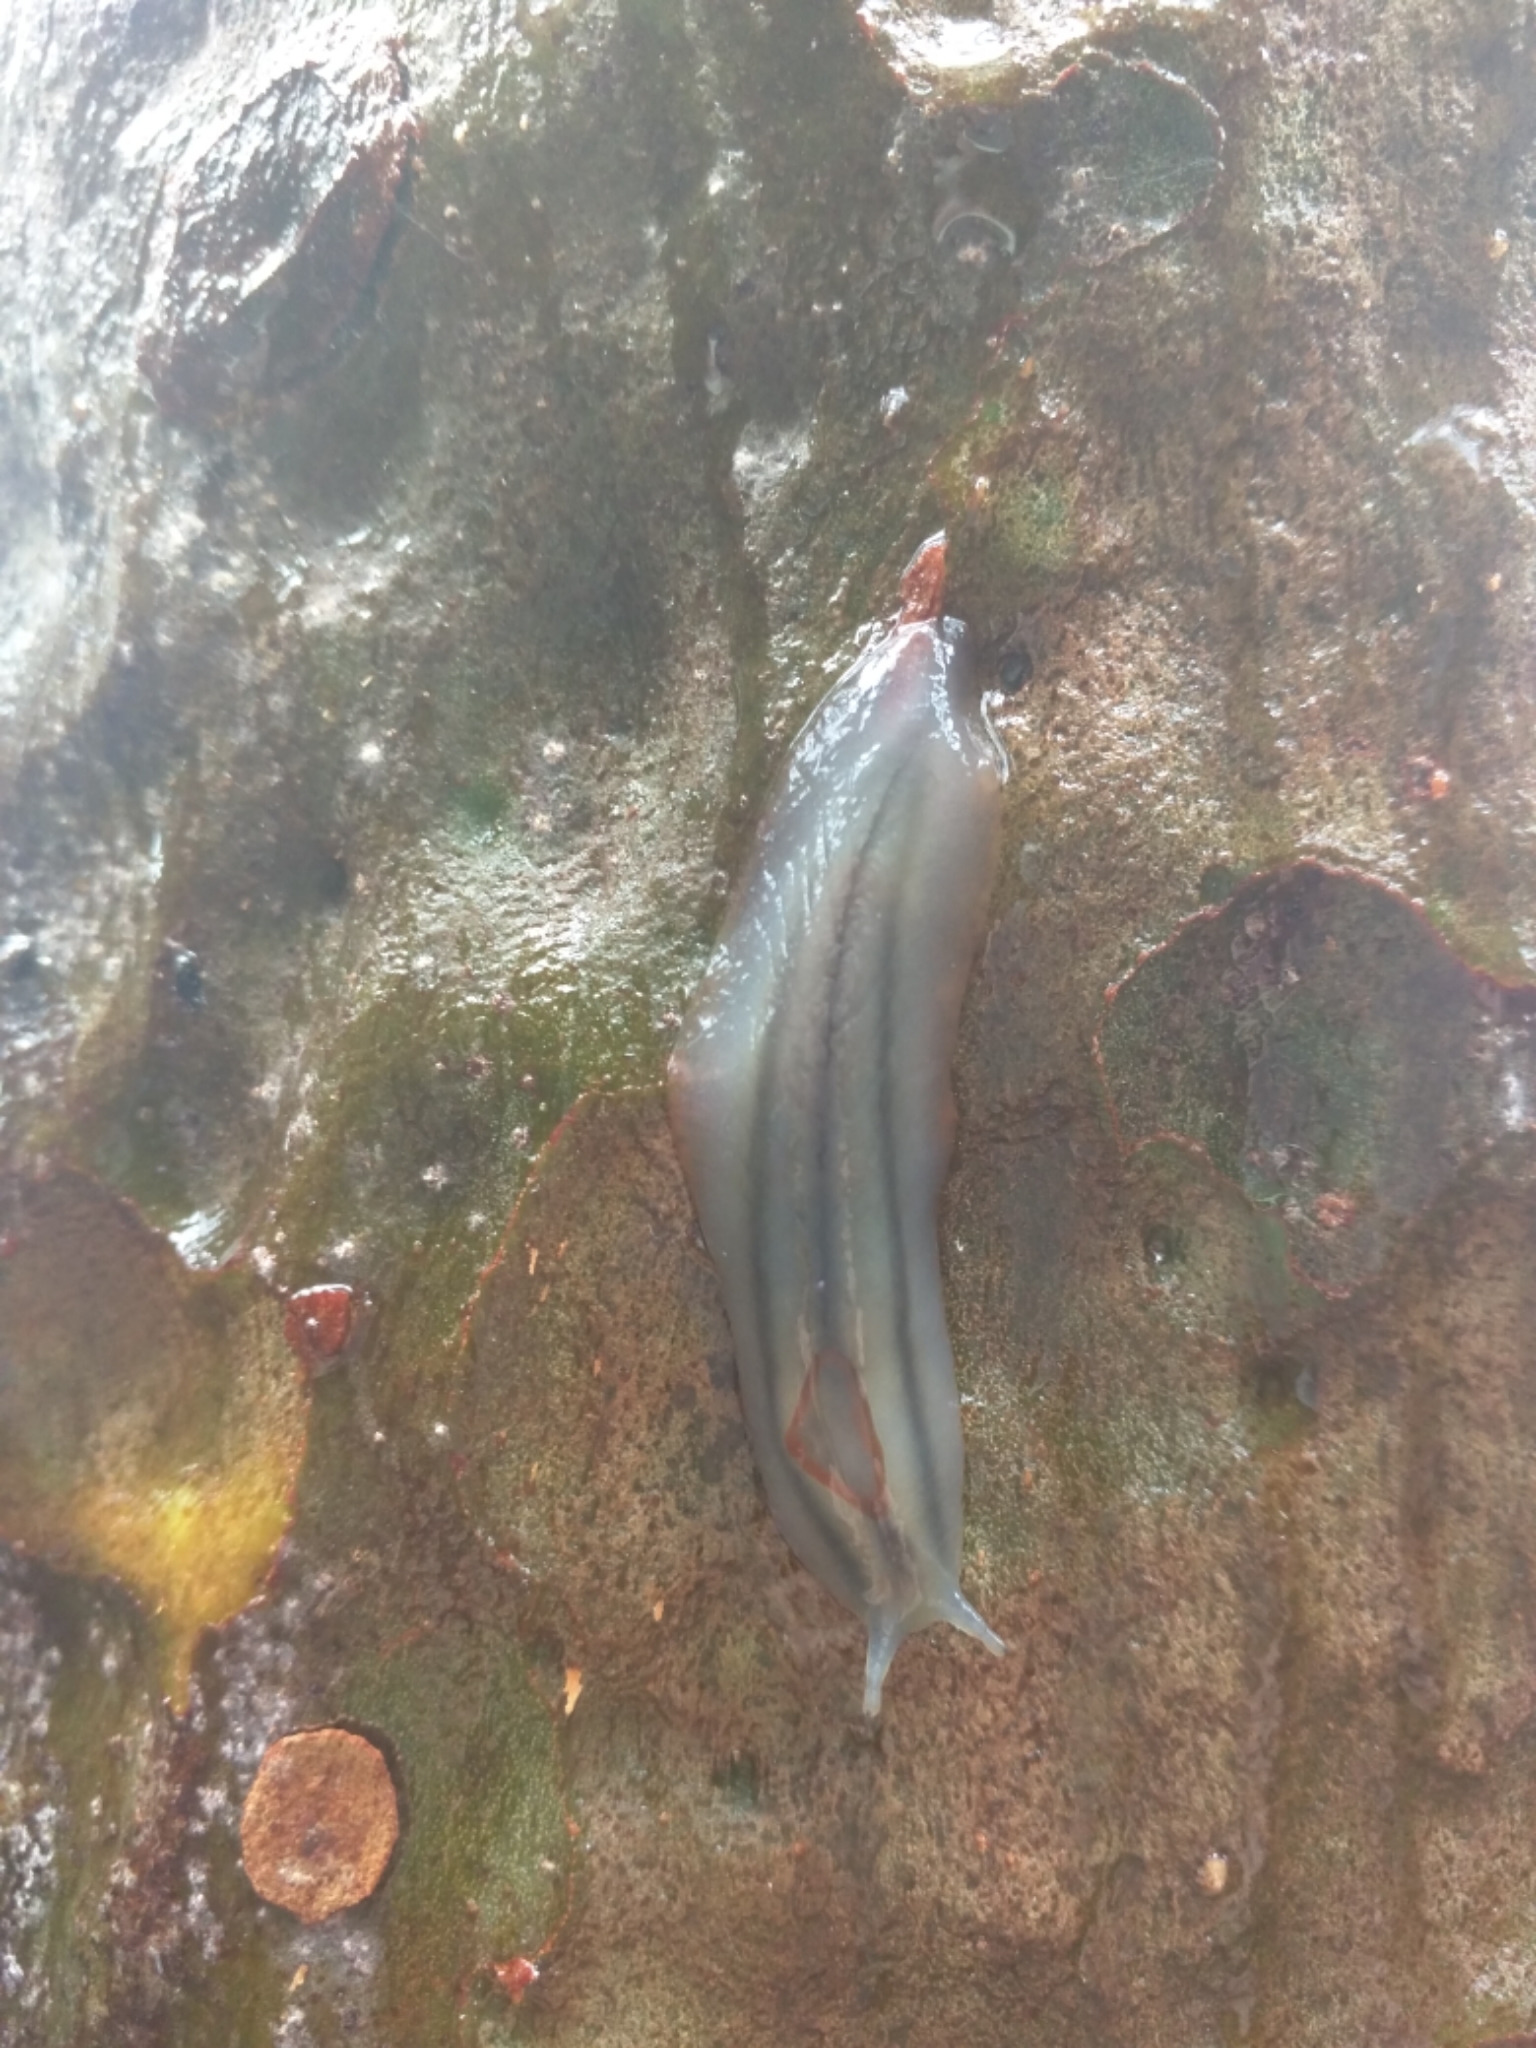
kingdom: Animalia
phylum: Mollusca
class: Gastropoda
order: Stylommatophora
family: Athoracophoridae
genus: Triboniophorus
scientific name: Triboniophorus graeffei
